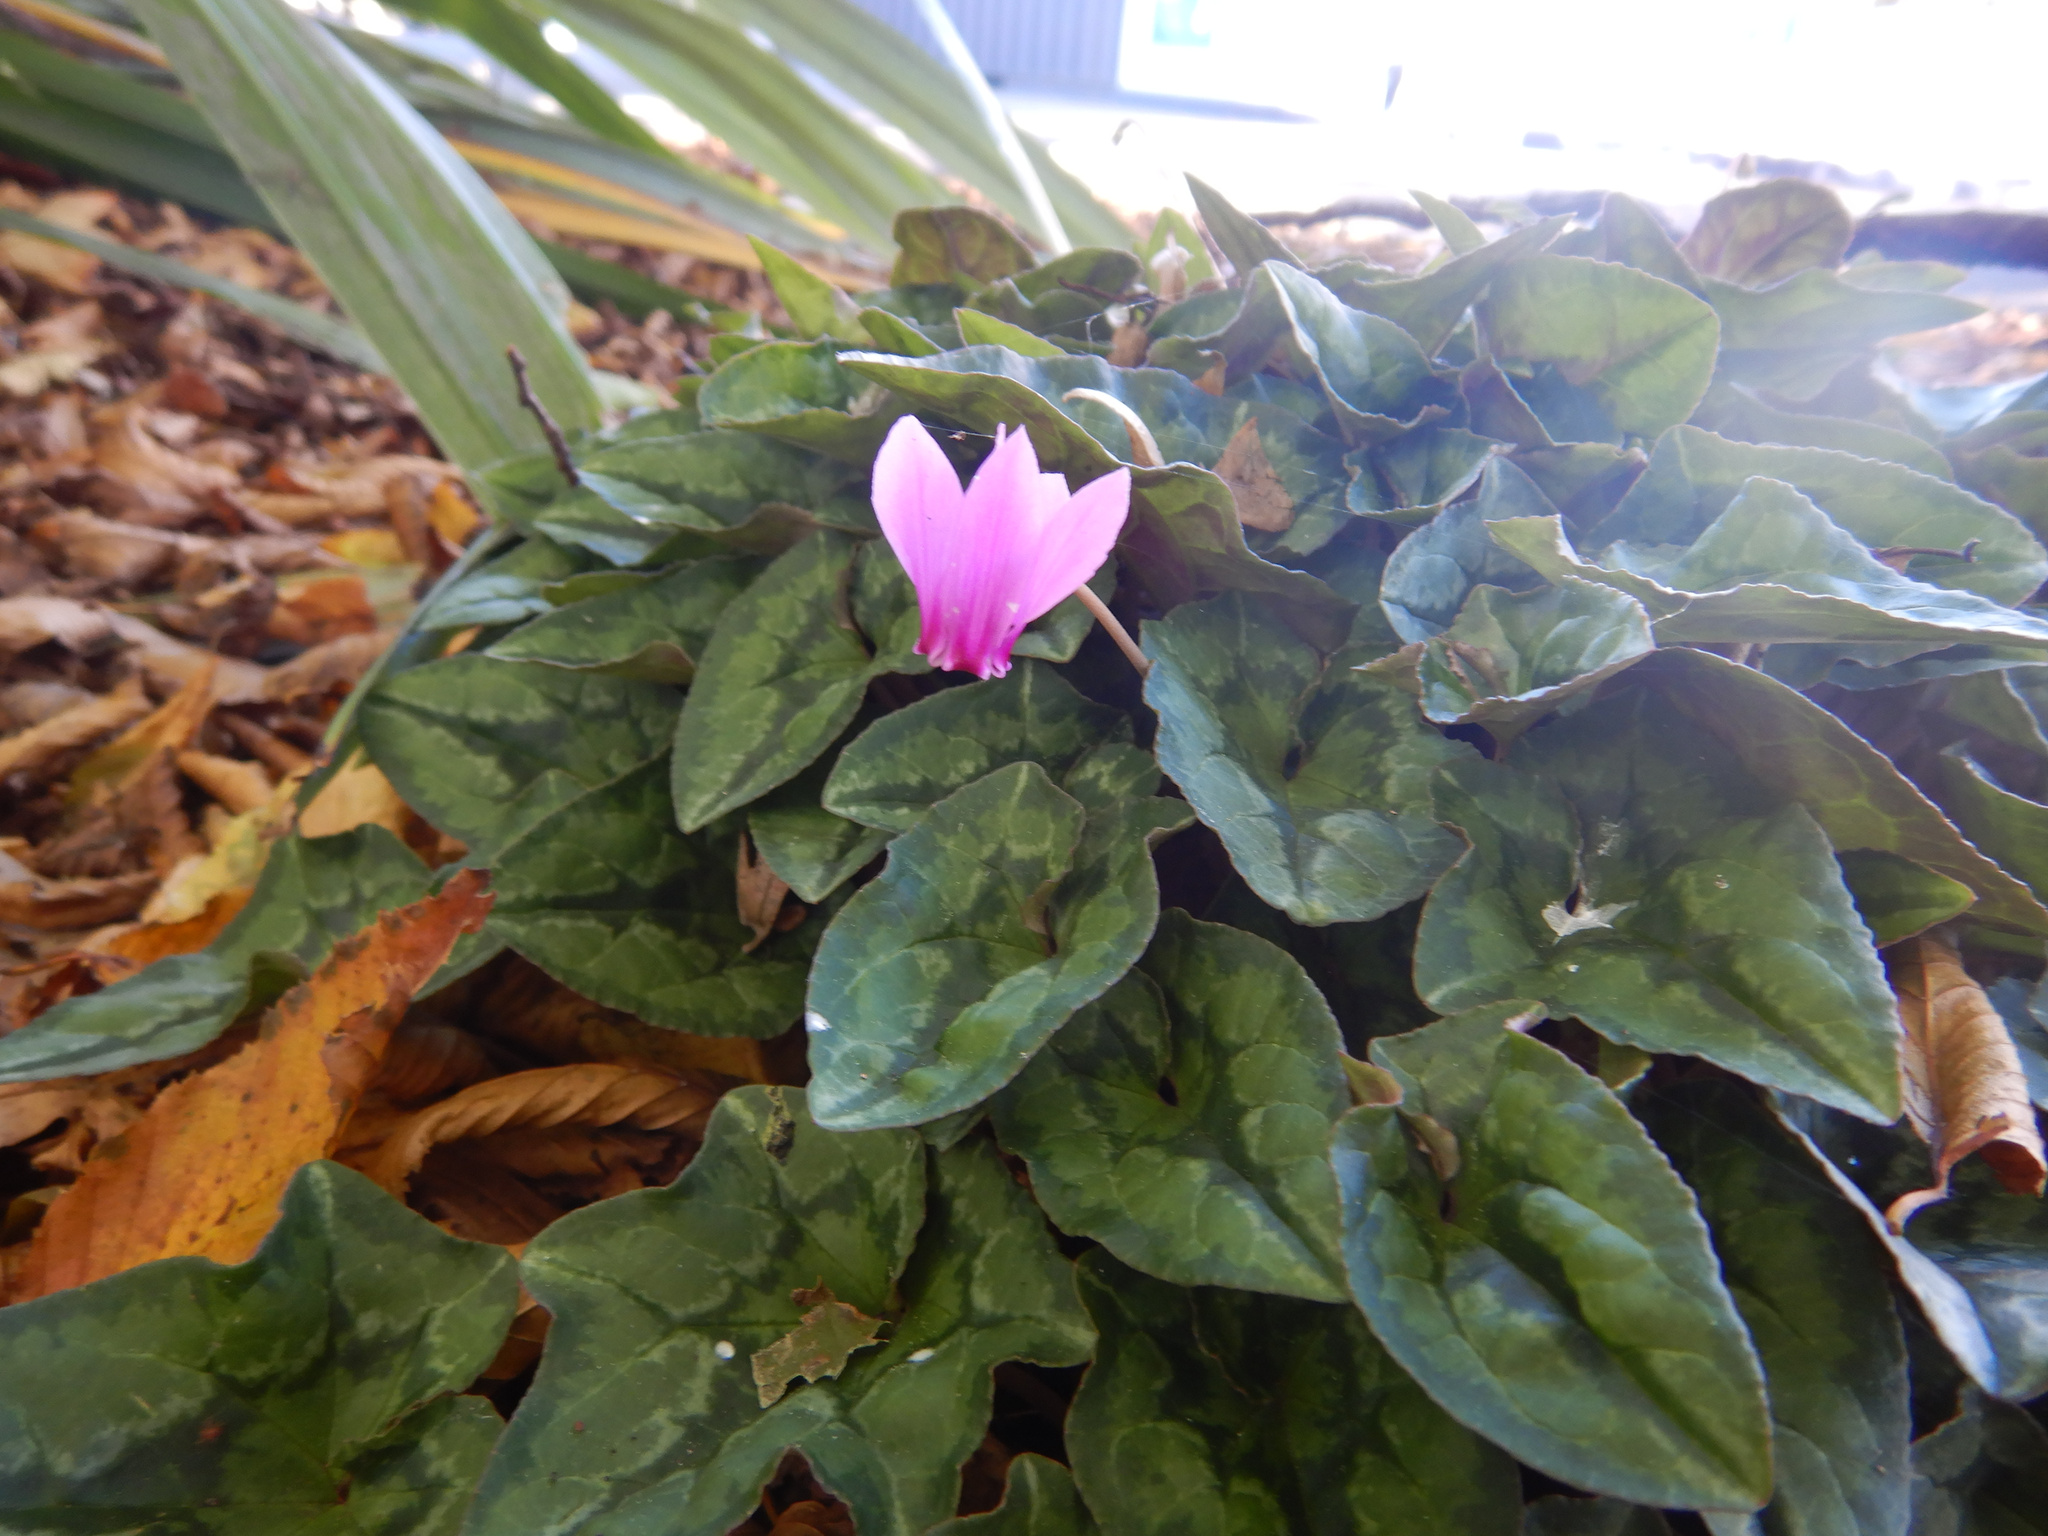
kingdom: Plantae
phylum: Tracheophyta
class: Magnoliopsida
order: Ericales
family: Primulaceae
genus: Cyclamen
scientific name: Cyclamen hederifolium
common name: Sowbread
